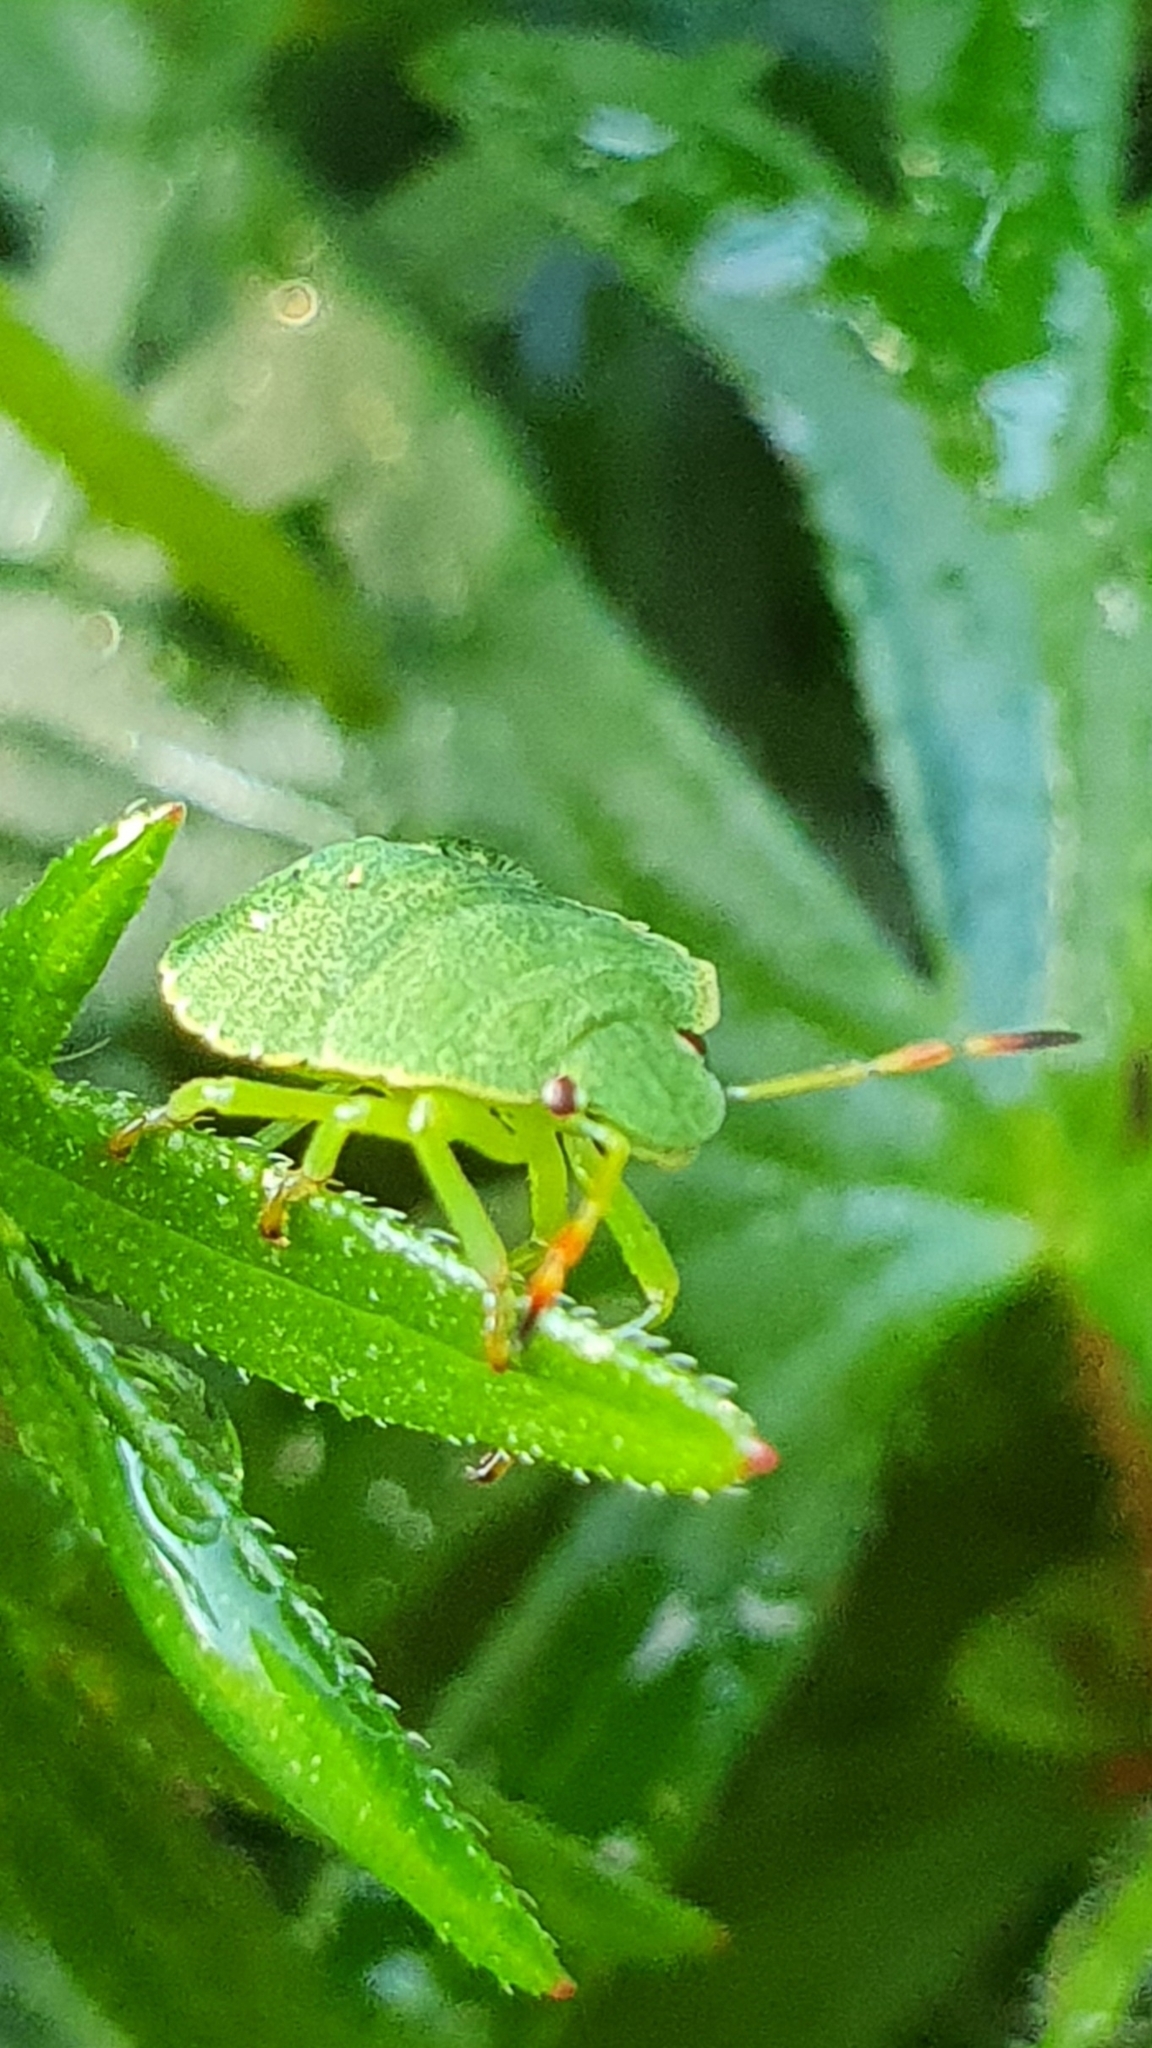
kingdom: Animalia
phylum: Arthropoda
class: Insecta
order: Hemiptera
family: Pentatomidae
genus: Palomena
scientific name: Palomena prasina
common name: Green shieldbug
